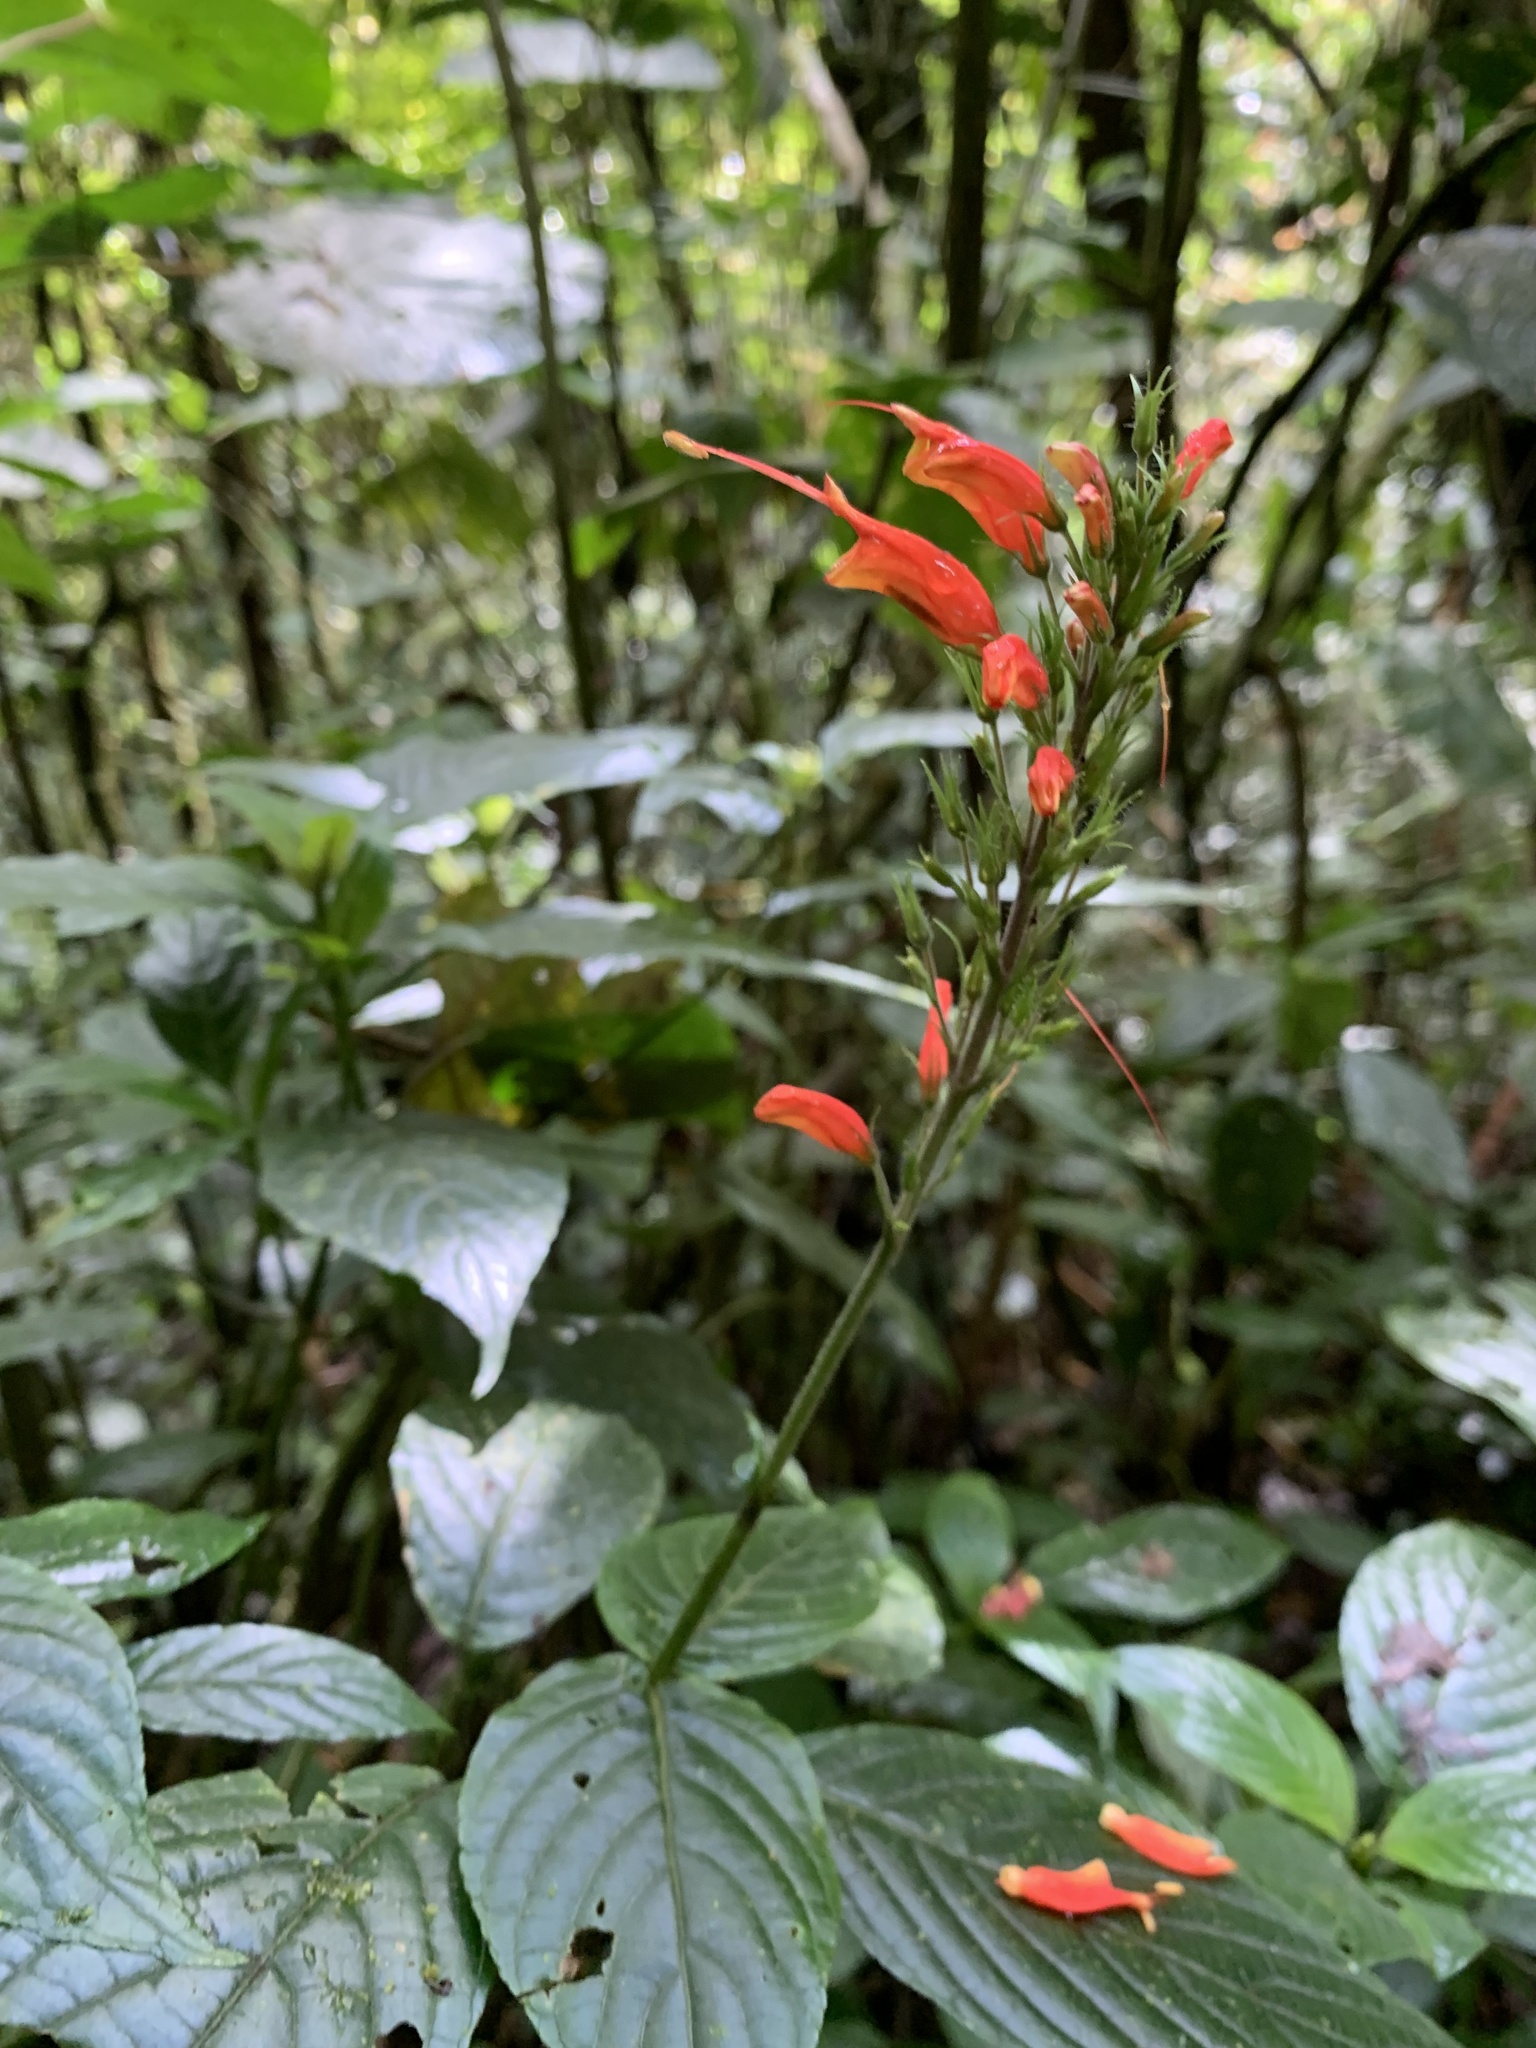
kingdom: Plantae
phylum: Tracheophyta
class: Magnoliopsida
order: Lamiales
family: Acanthaceae
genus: Stenostephanus
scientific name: Stenostephanus leiorhachis
